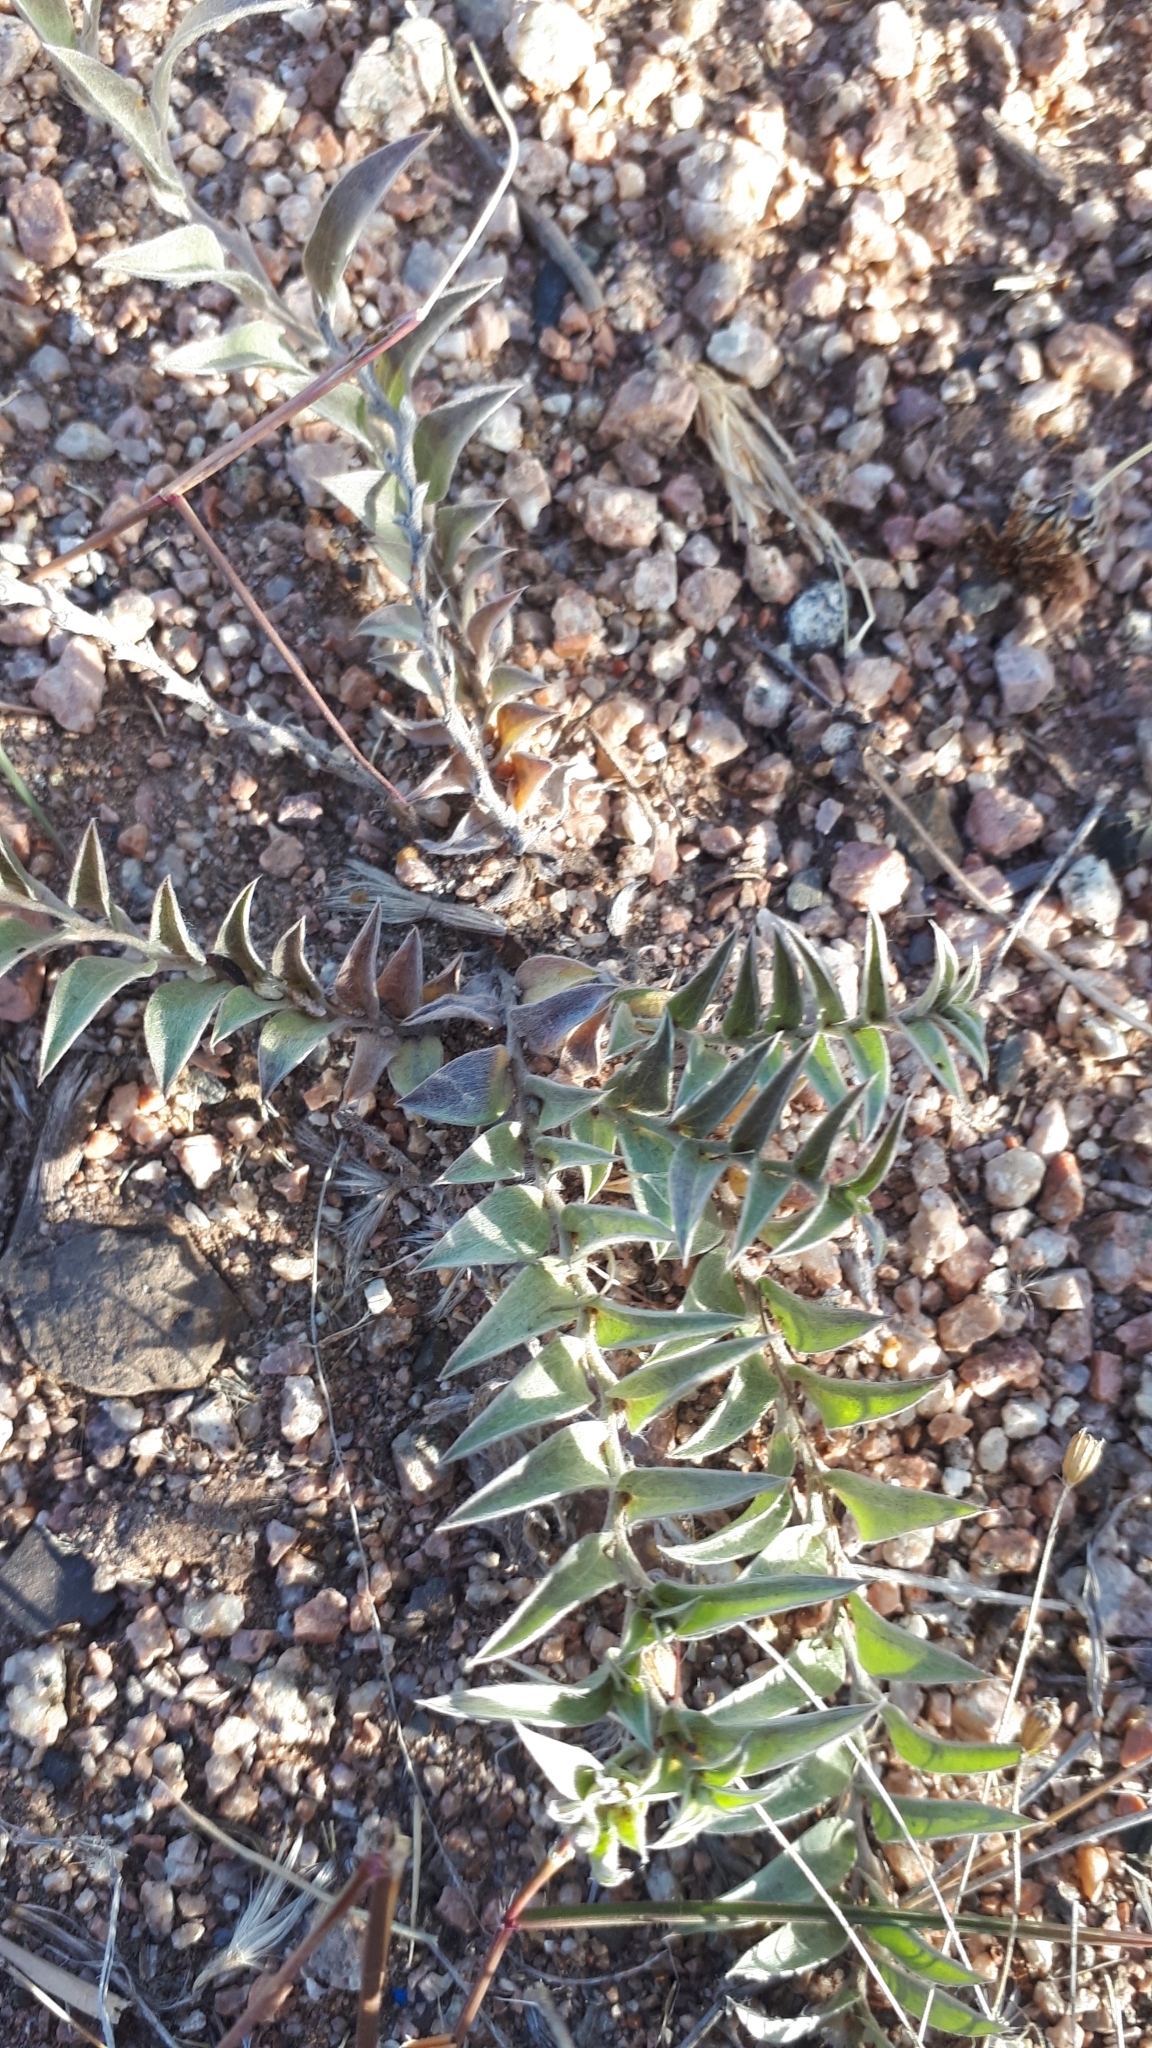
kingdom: Plantae
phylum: Tracheophyta
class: Magnoliopsida
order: Solanales
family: Convolvulaceae
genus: Evolvulus
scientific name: Evolvulus sericeus
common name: Blue dots
